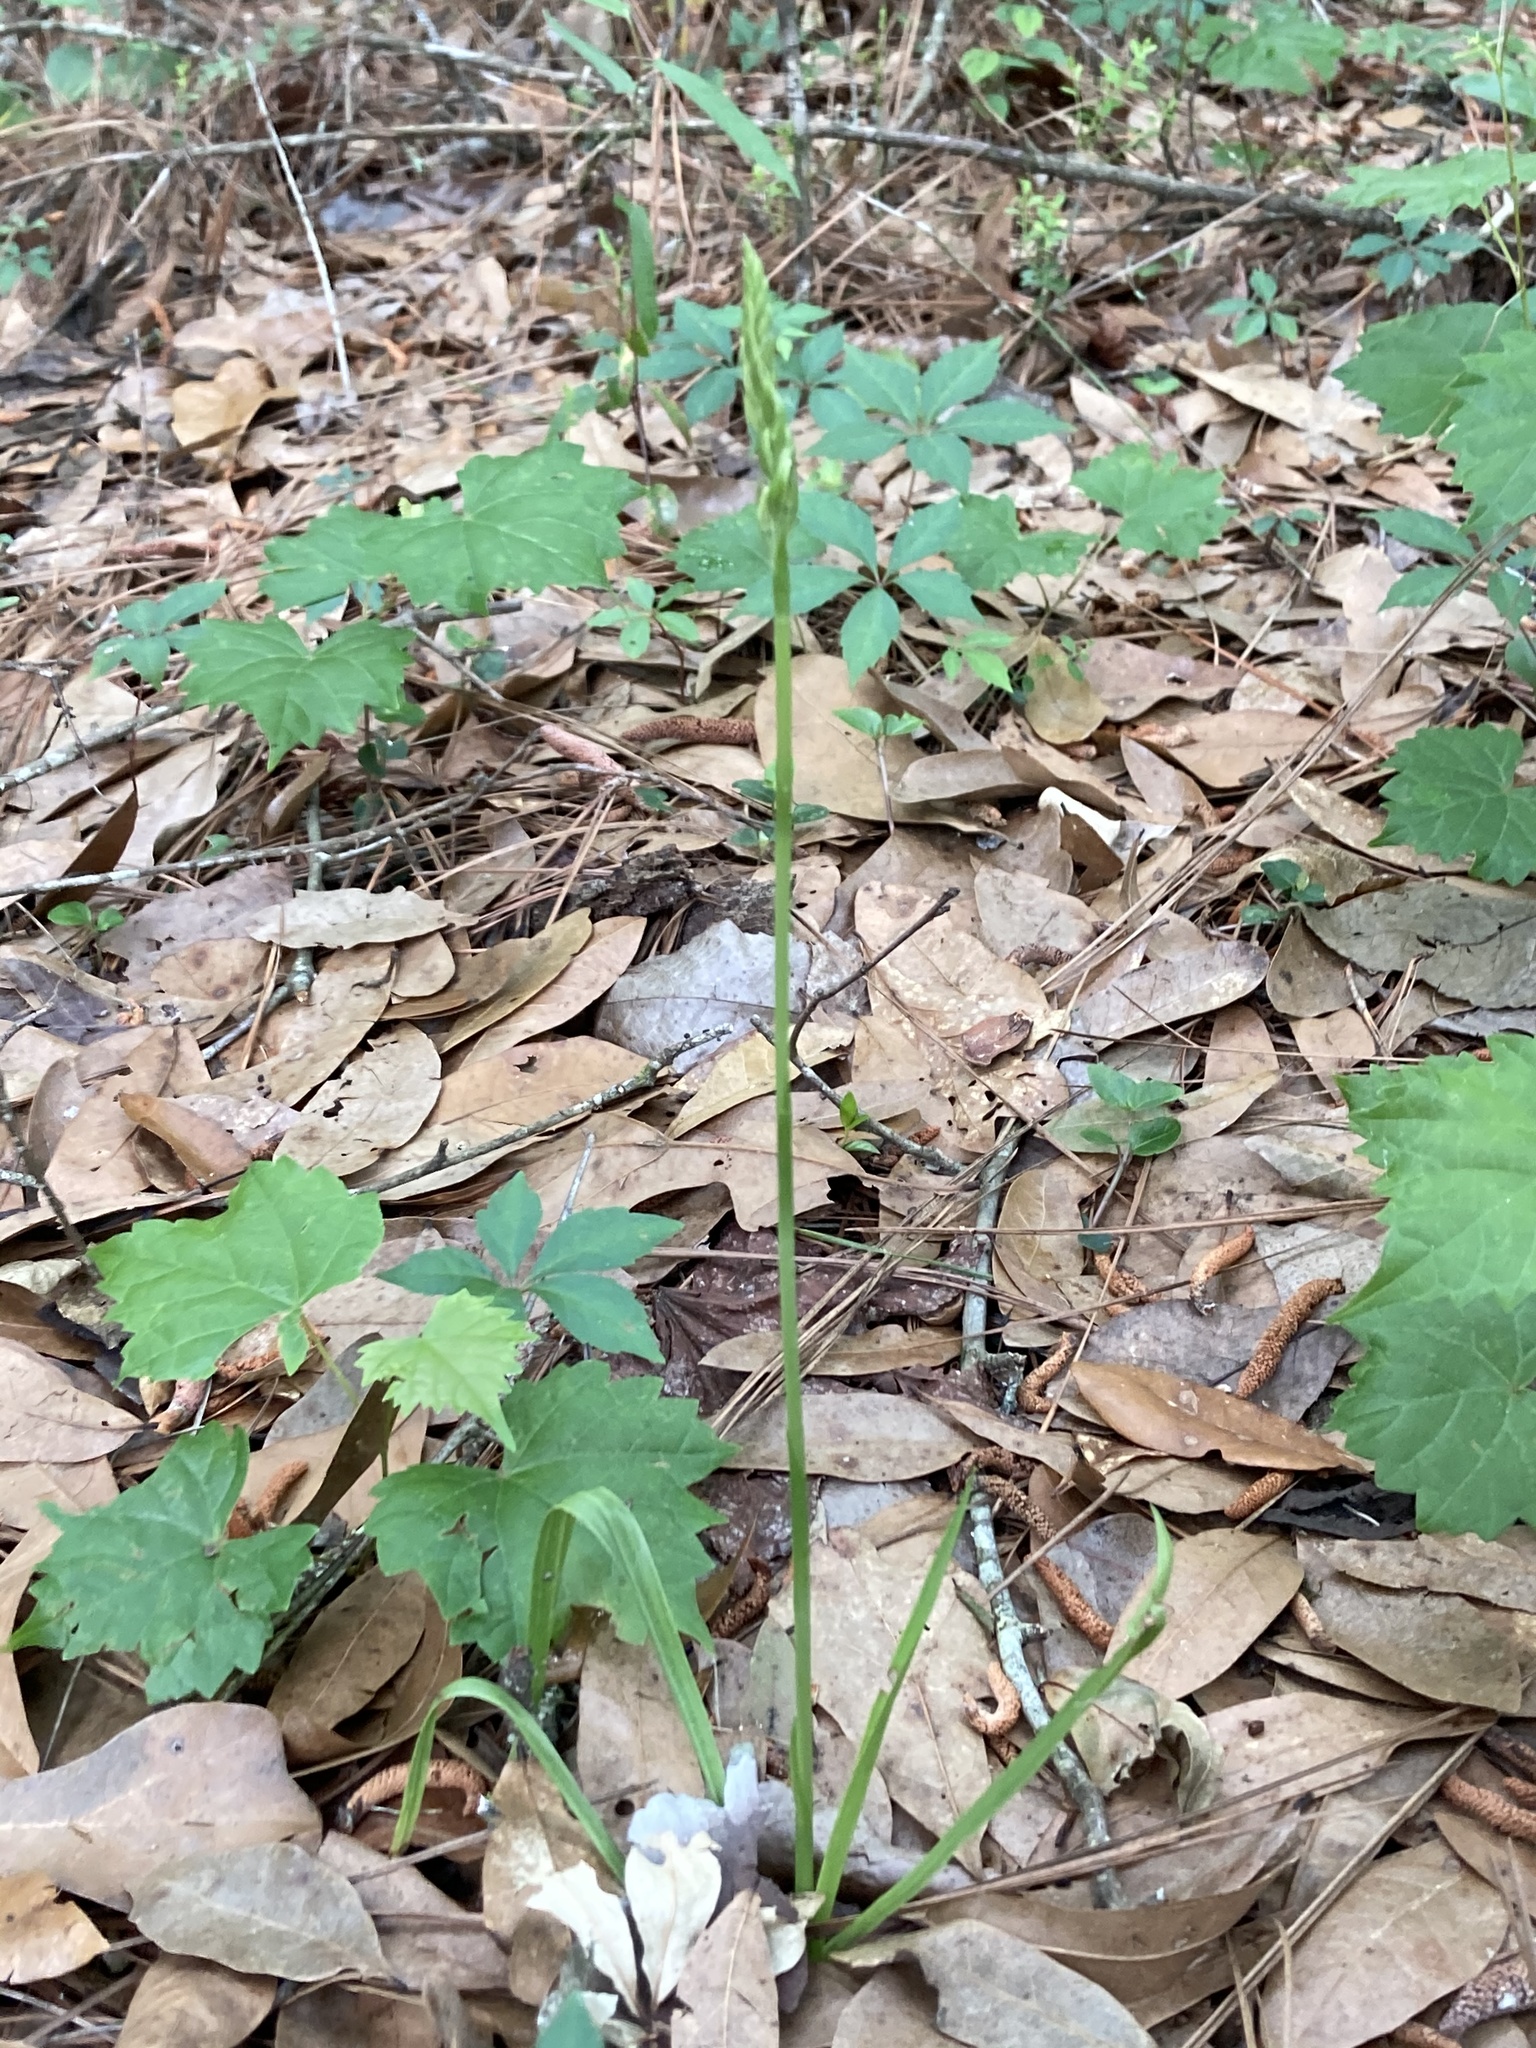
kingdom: Plantae
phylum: Tracheophyta
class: Liliopsida
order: Asparagales
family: Orchidaceae
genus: Spiranthes
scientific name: Spiranthes praecox
